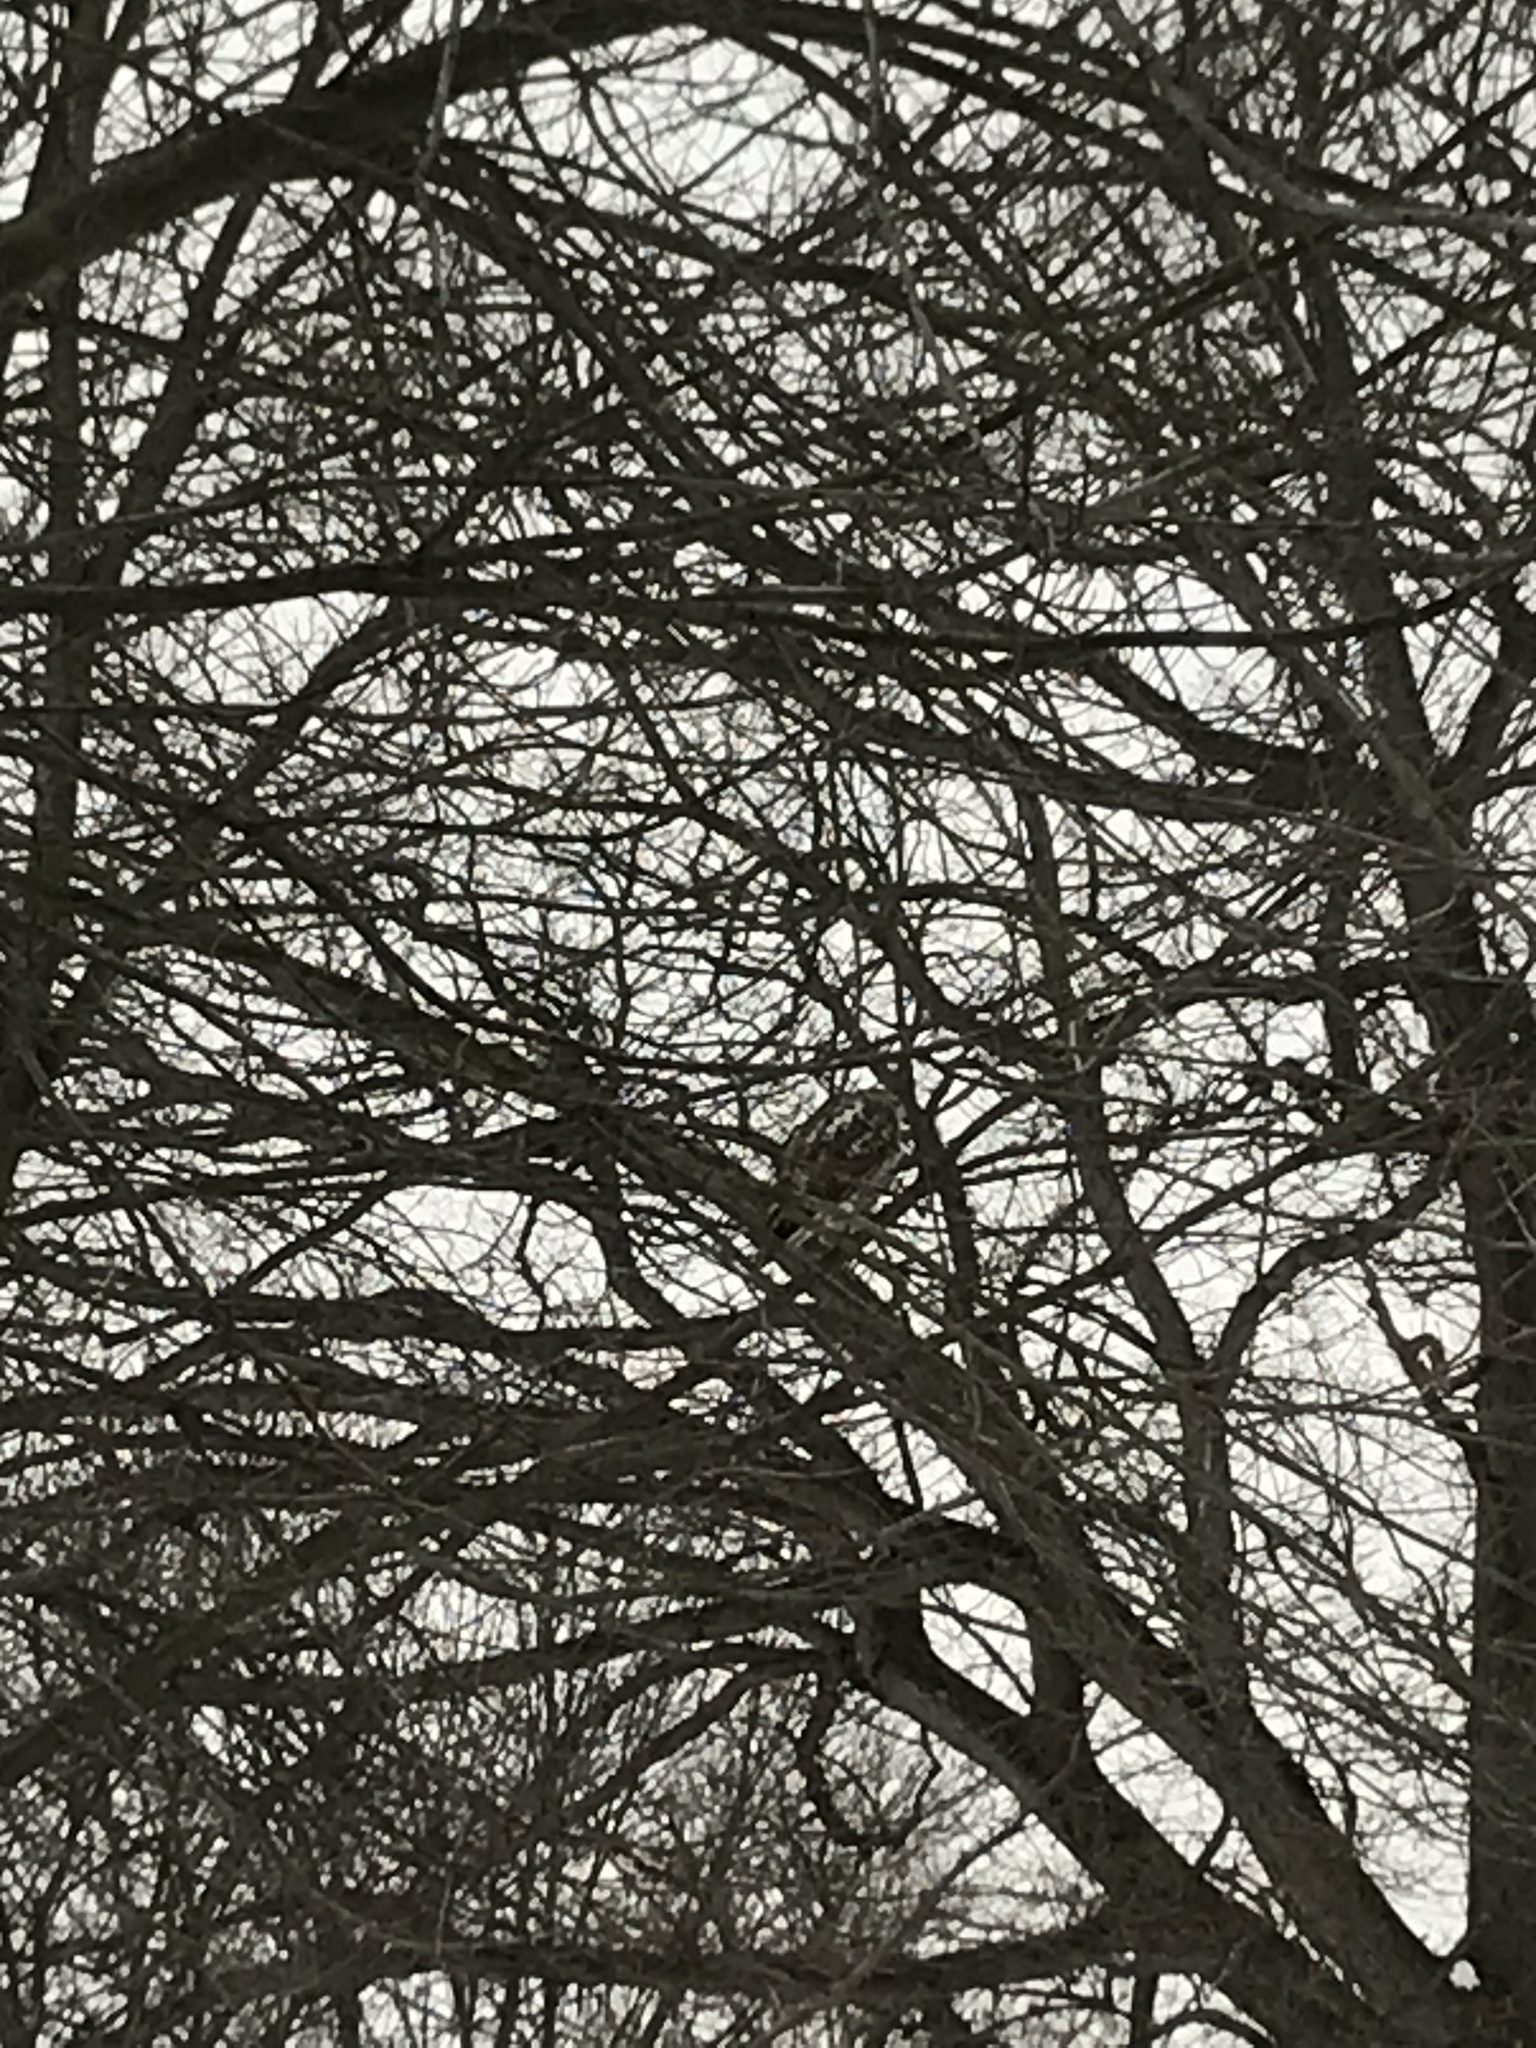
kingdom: Animalia
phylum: Chordata
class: Aves
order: Accipitriformes
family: Accipitridae
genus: Buteo
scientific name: Buteo jamaicensis
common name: Red-tailed hawk
